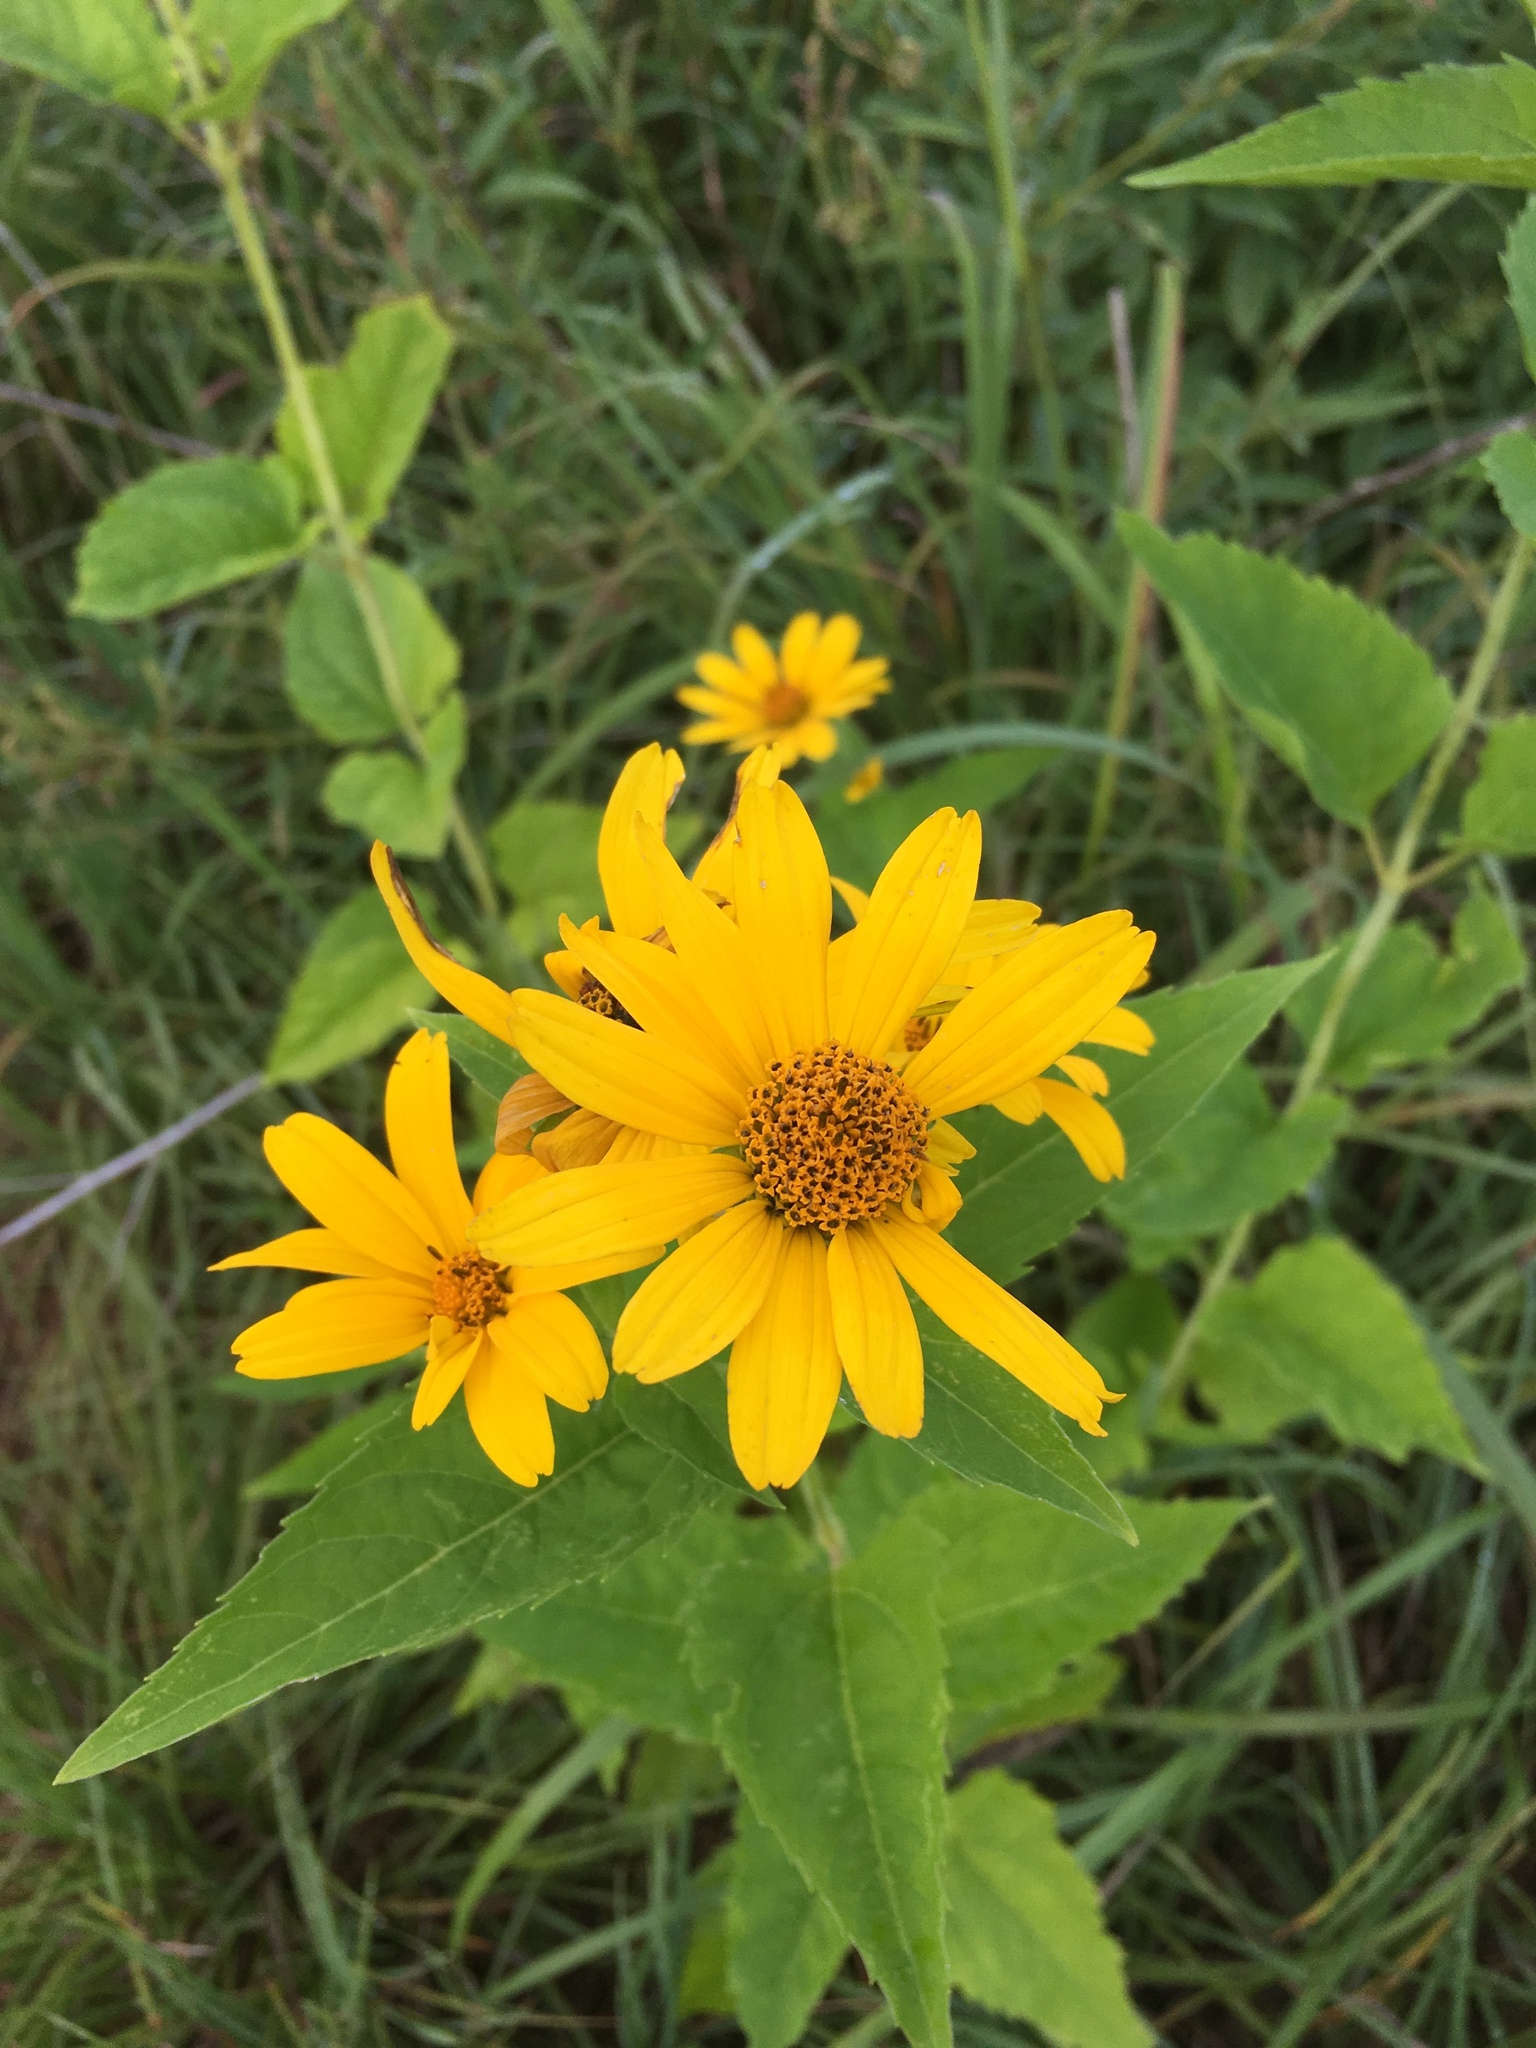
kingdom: Plantae
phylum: Tracheophyta
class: Magnoliopsida
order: Asterales
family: Asteraceae
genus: Heliopsis
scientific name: Heliopsis helianthoides
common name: False sunflower
